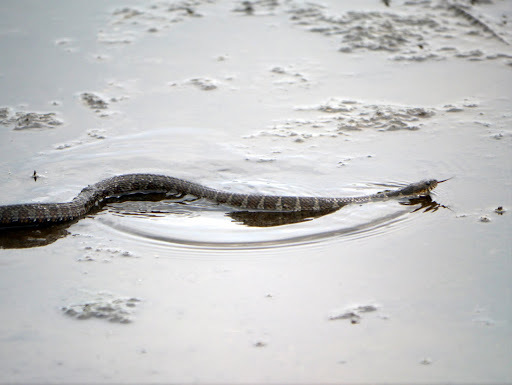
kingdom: Animalia
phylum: Chordata
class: Squamata
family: Colubridae
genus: Nerodia
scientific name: Nerodia sipedon
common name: Northern water snake
